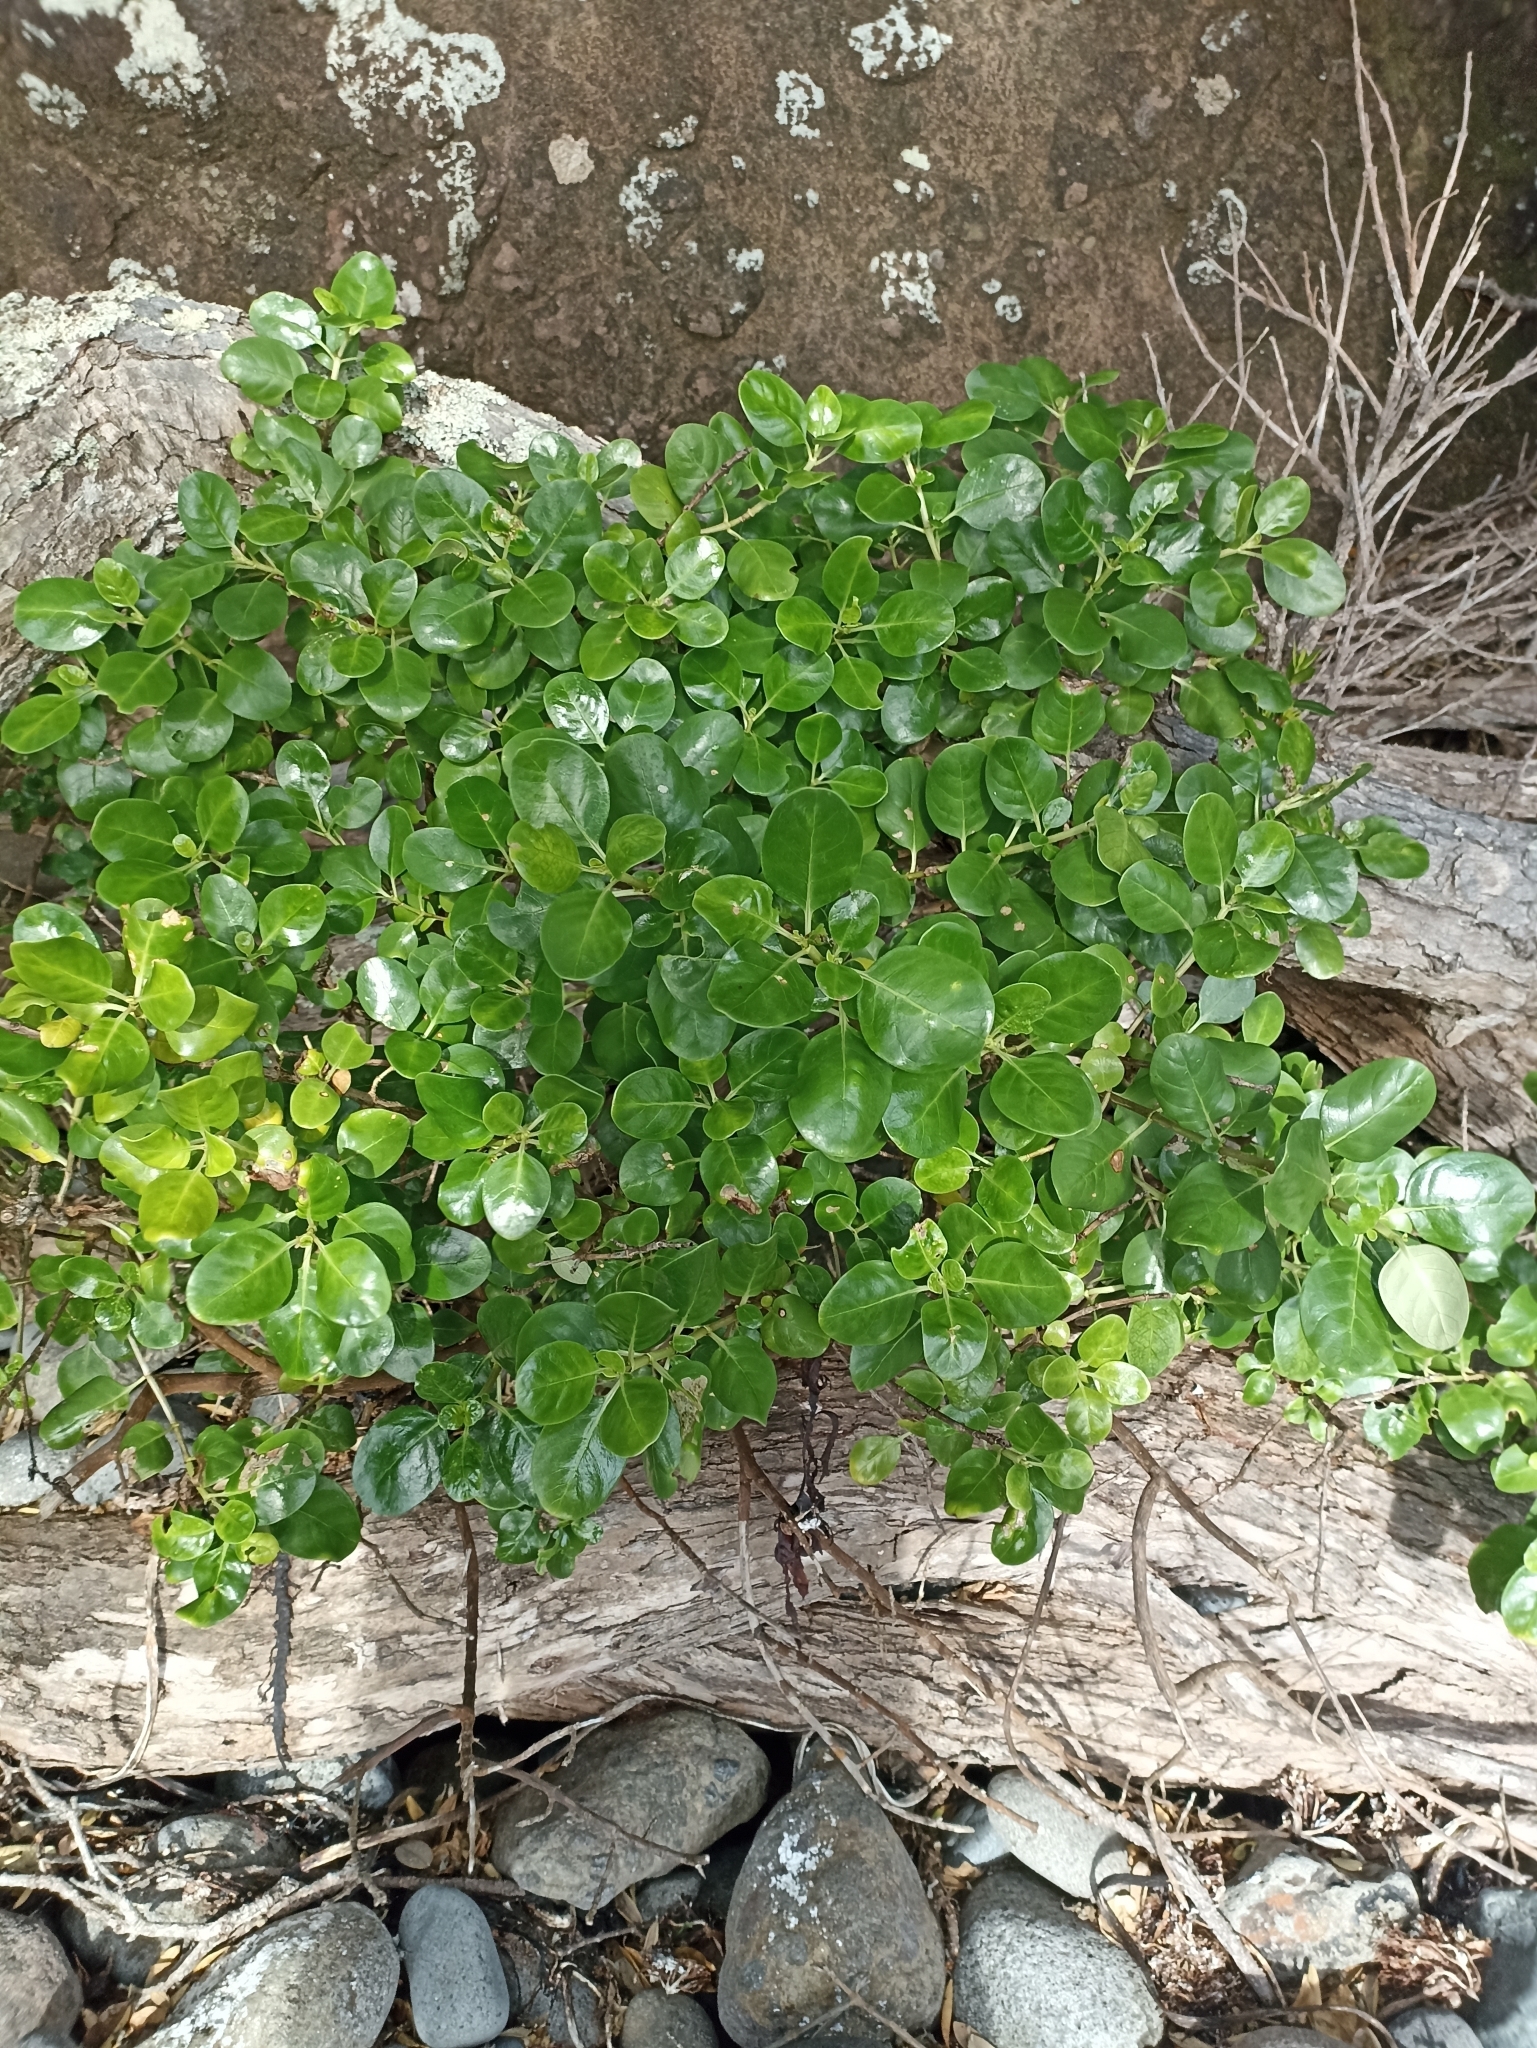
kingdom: Plantae
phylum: Tracheophyta
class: Magnoliopsida
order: Gentianales
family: Rubiaceae
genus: Coprosma
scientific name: Coprosma repens
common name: Tree bedstraw
